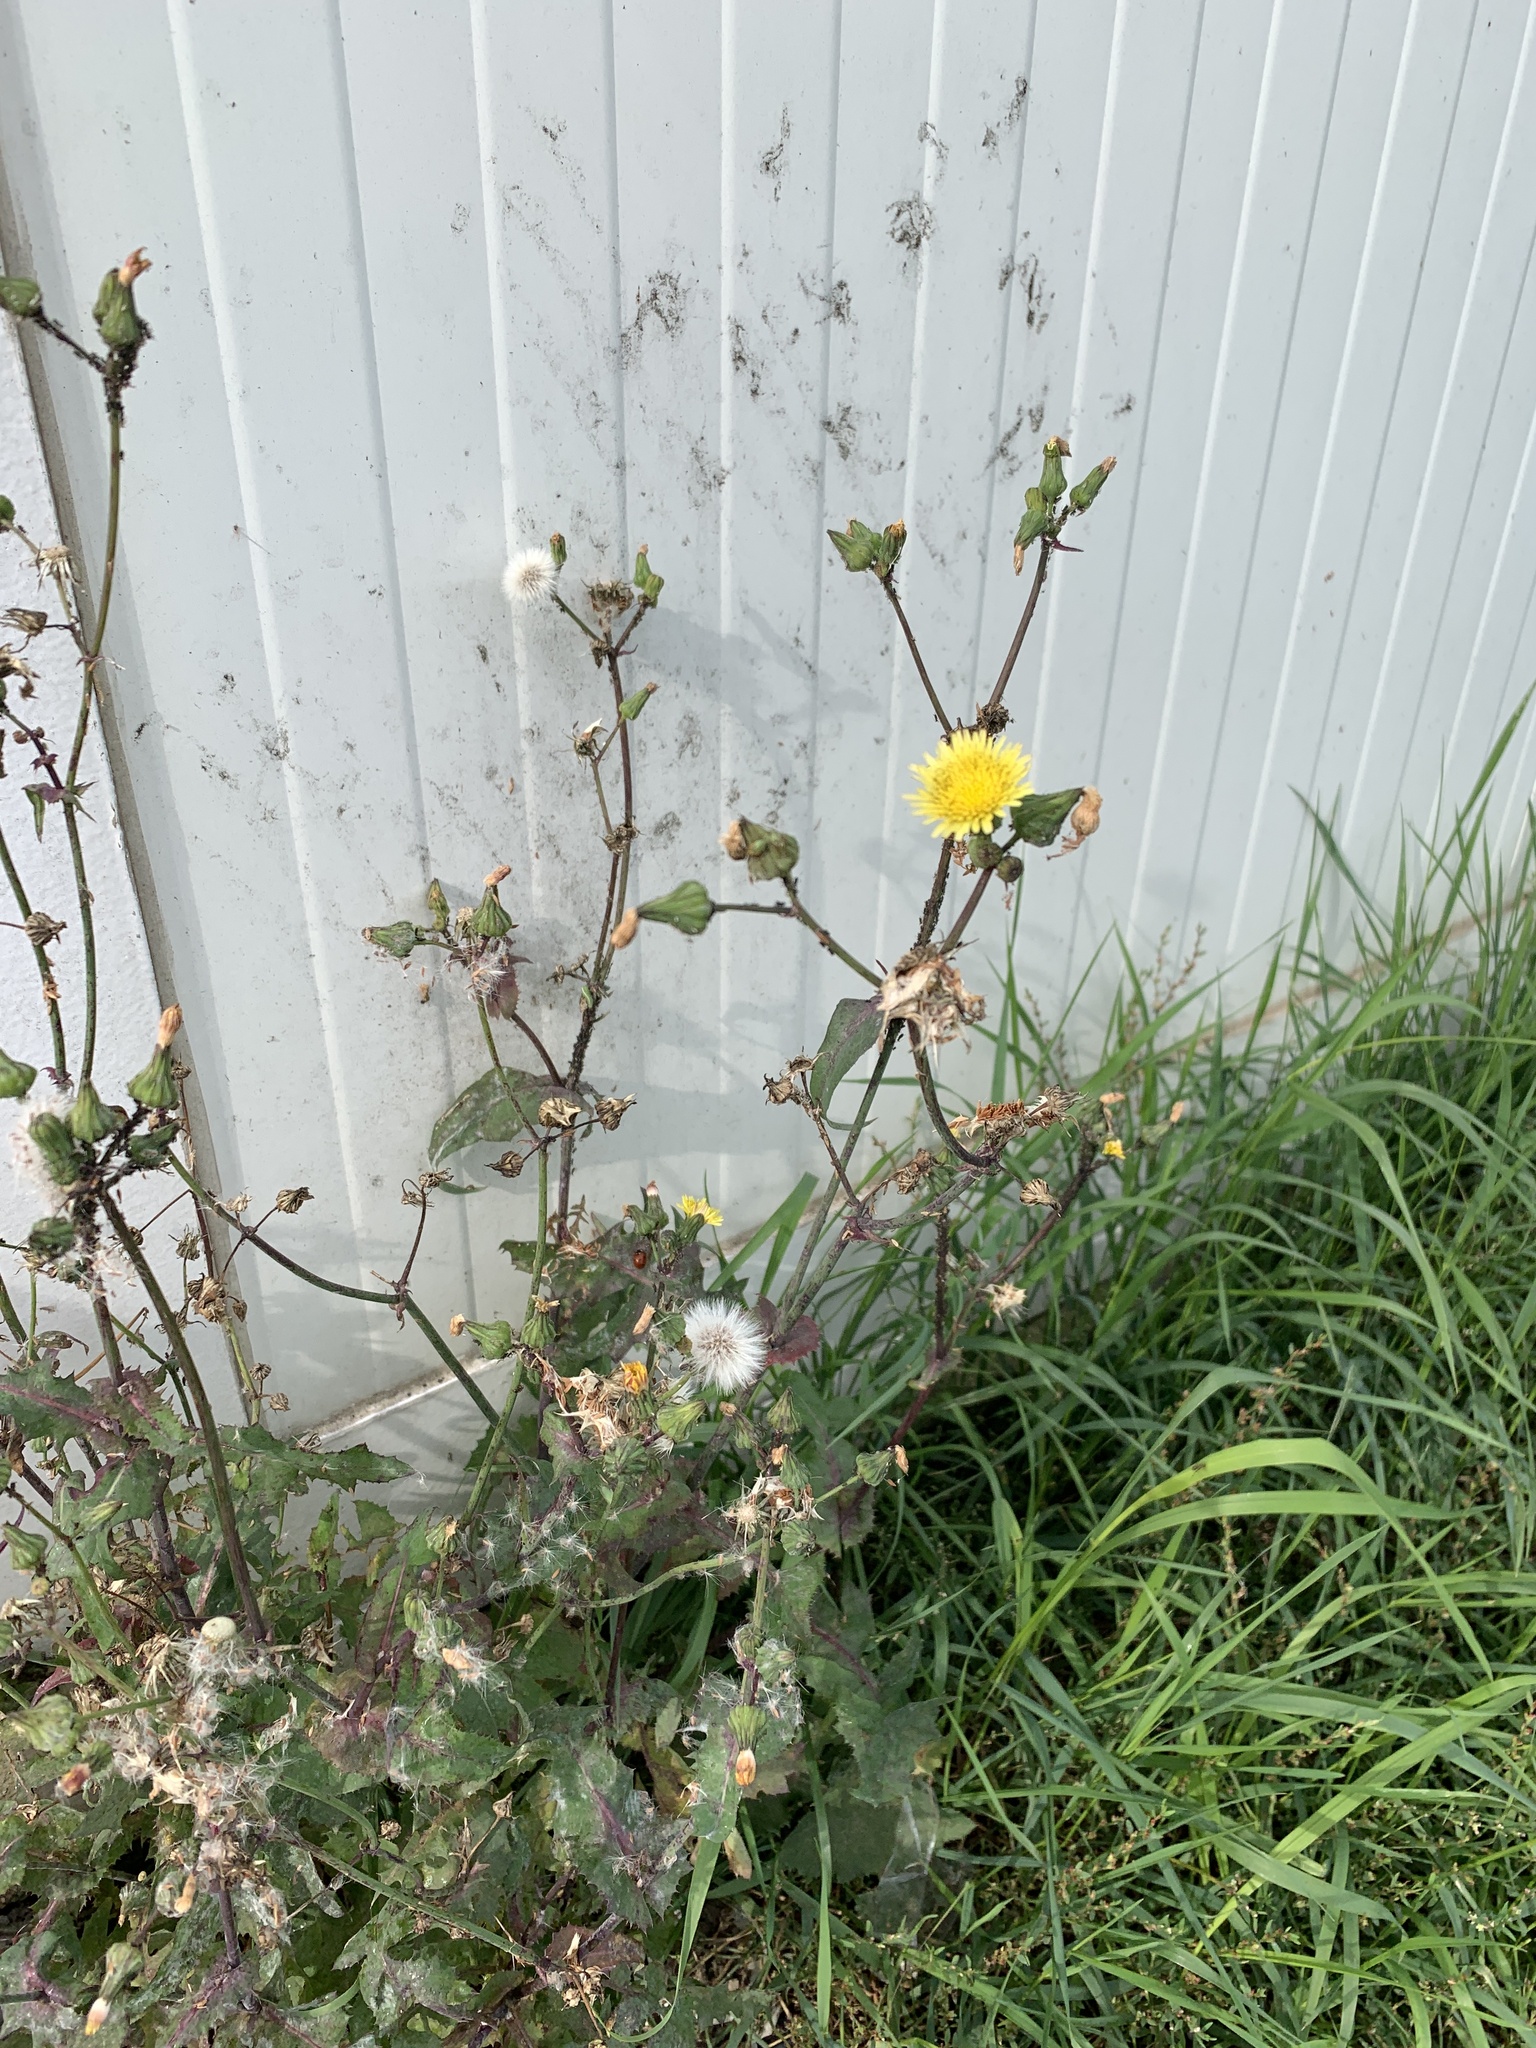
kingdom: Plantae
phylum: Tracheophyta
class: Magnoliopsida
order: Asterales
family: Asteraceae
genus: Sonchus
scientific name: Sonchus oleraceus
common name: Common sowthistle
